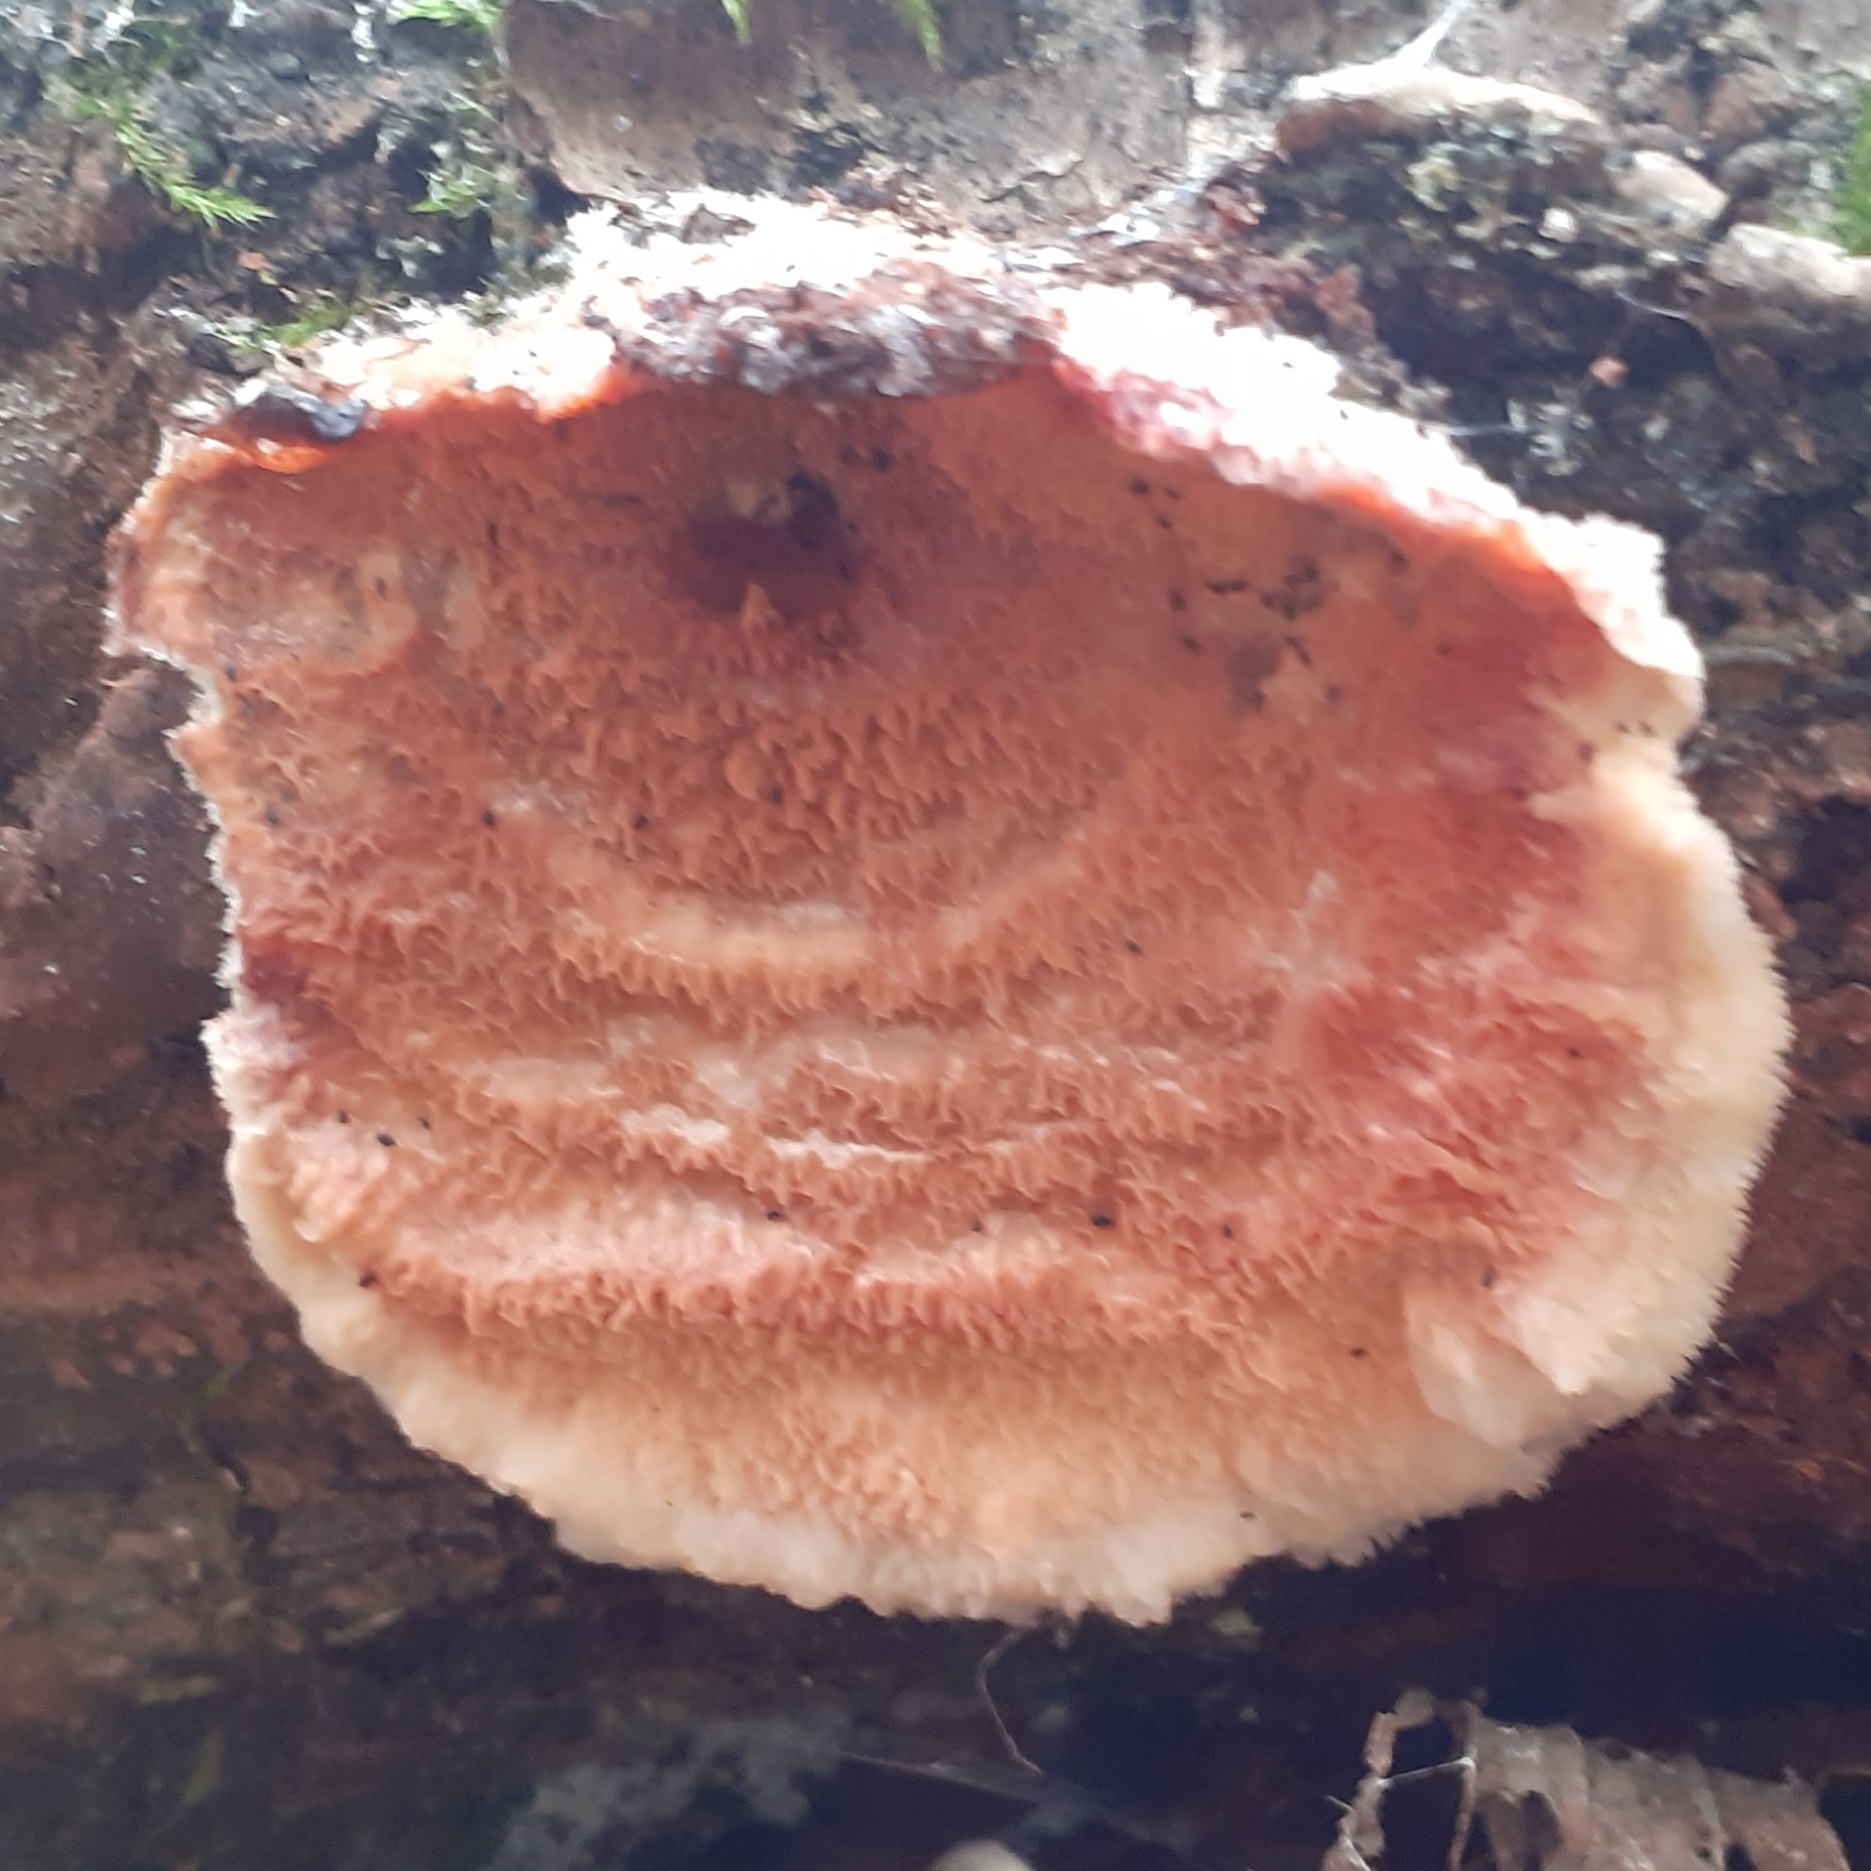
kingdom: Fungi
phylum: Basidiomycota
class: Agaricomycetes
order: Polyporales
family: Meruliaceae
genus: Phlebia
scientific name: Phlebia tremellosa
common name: Jelly rot
